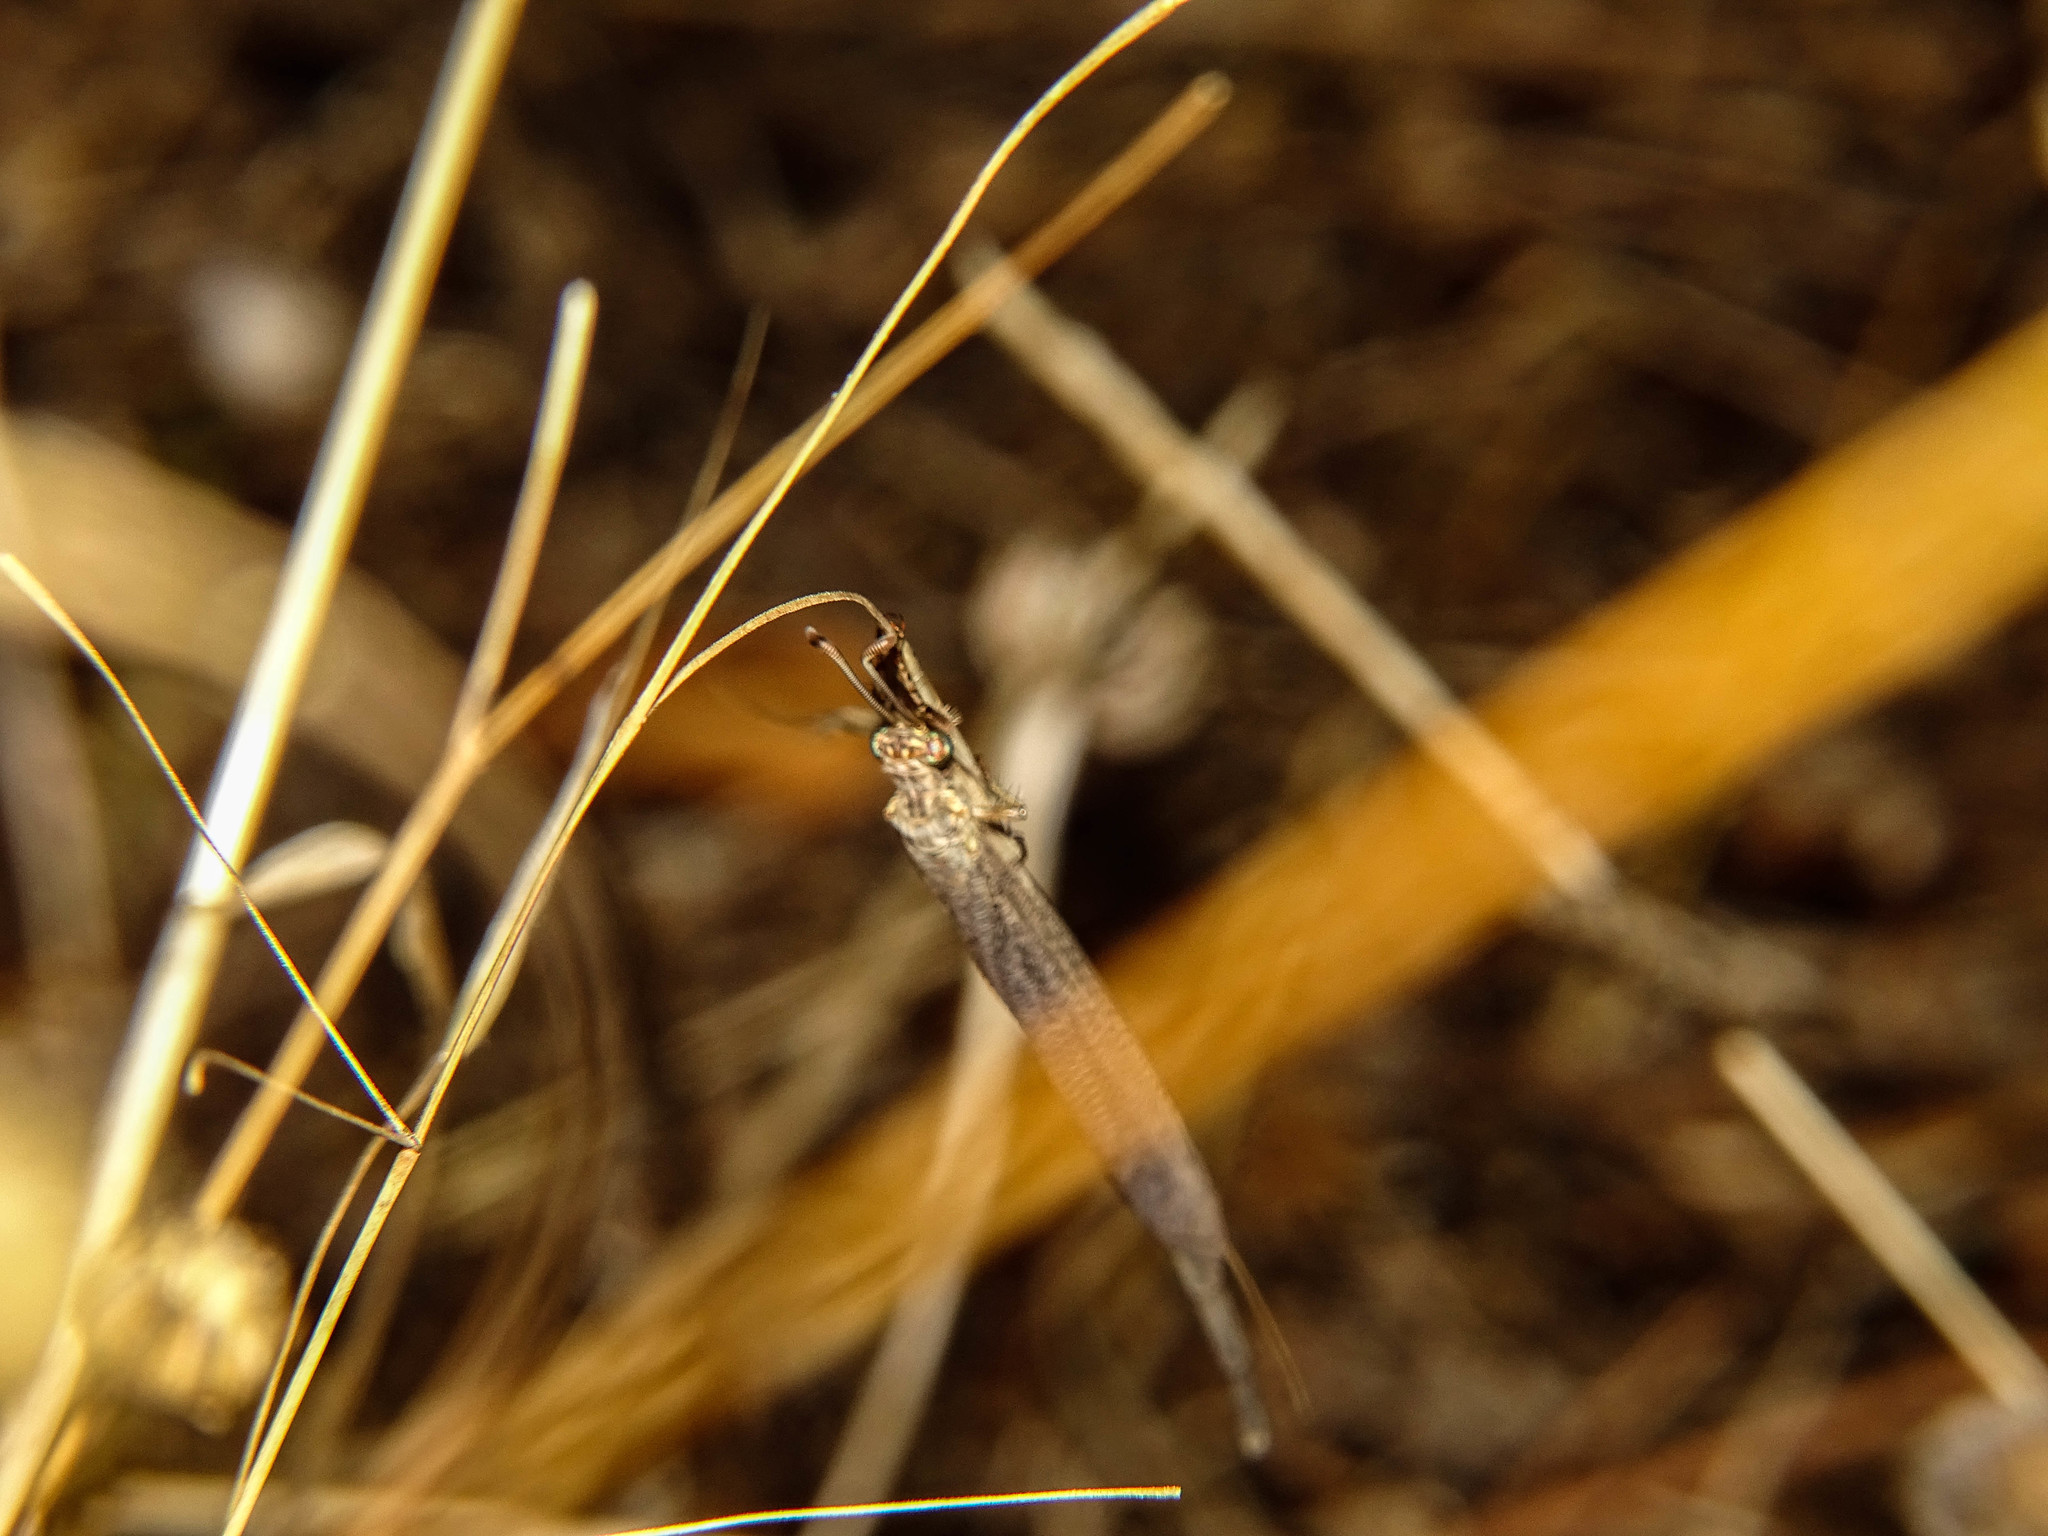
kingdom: Animalia
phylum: Arthropoda
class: Insecta
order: Neuroptera
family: Myrmeleontidae
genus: Creoleon
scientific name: Creoleon plumbeus
